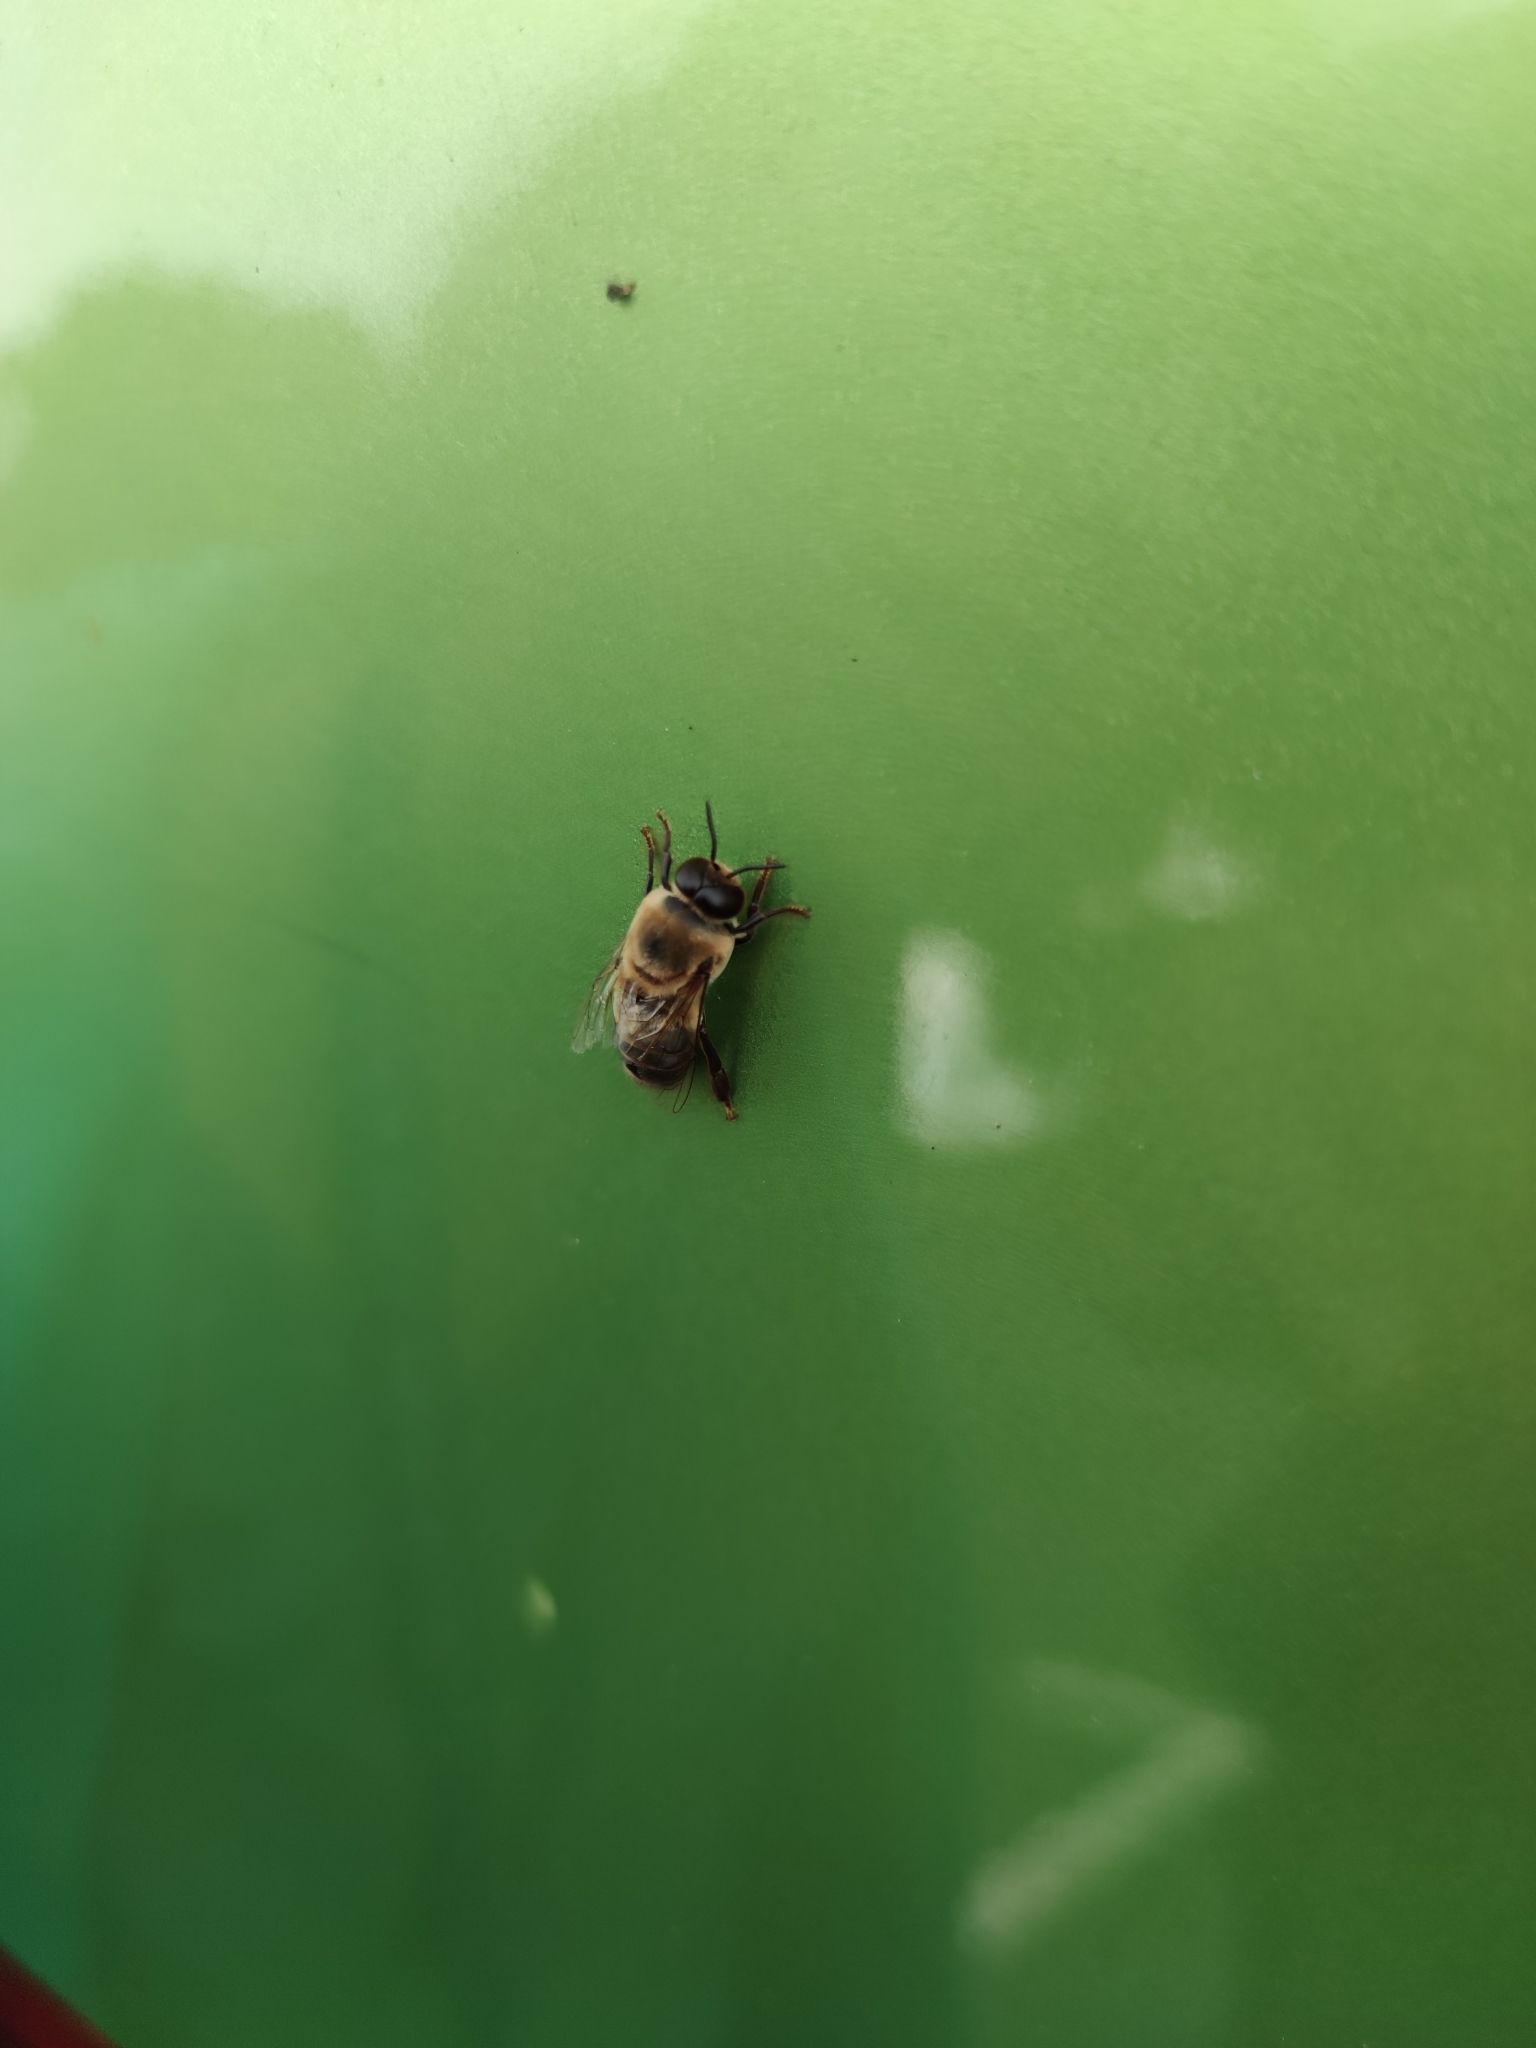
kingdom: Animalia
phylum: Arthropoda
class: Insecta
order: Hymenoptera
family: Apidae
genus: Apis
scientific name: Apis mellifera
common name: Honey bee
